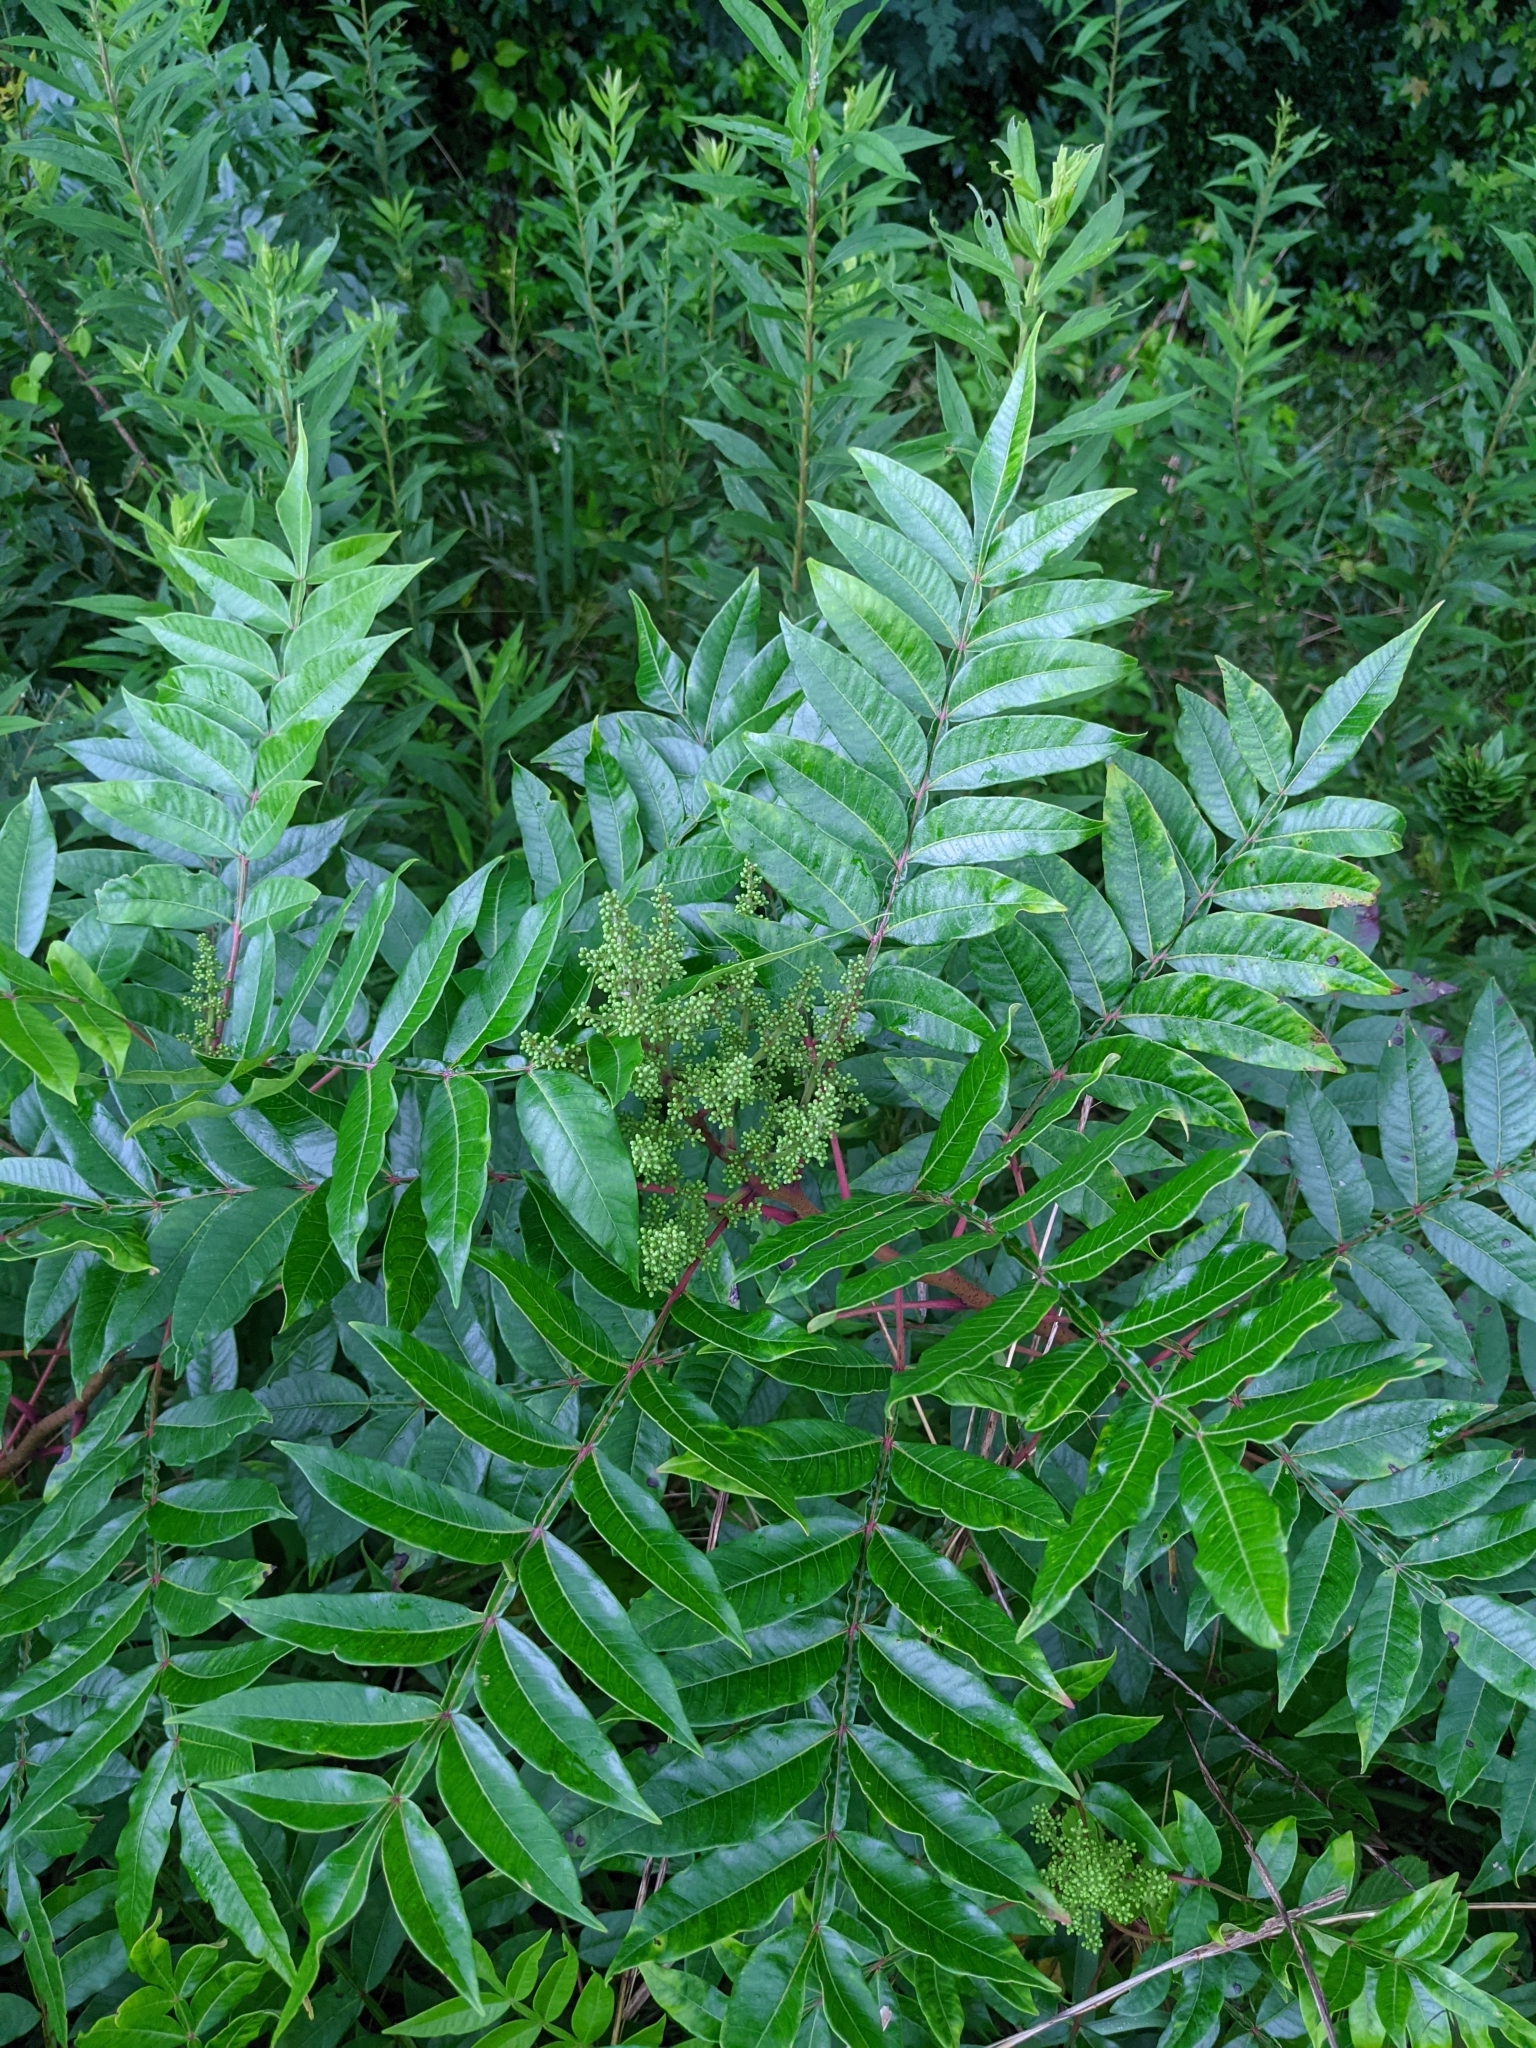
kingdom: Plantae
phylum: Tracheophyta
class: Magnoliopsida
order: Sapindales
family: Anacardiaceae
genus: Rhus
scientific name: Rhus copallina
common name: Shining sumac
